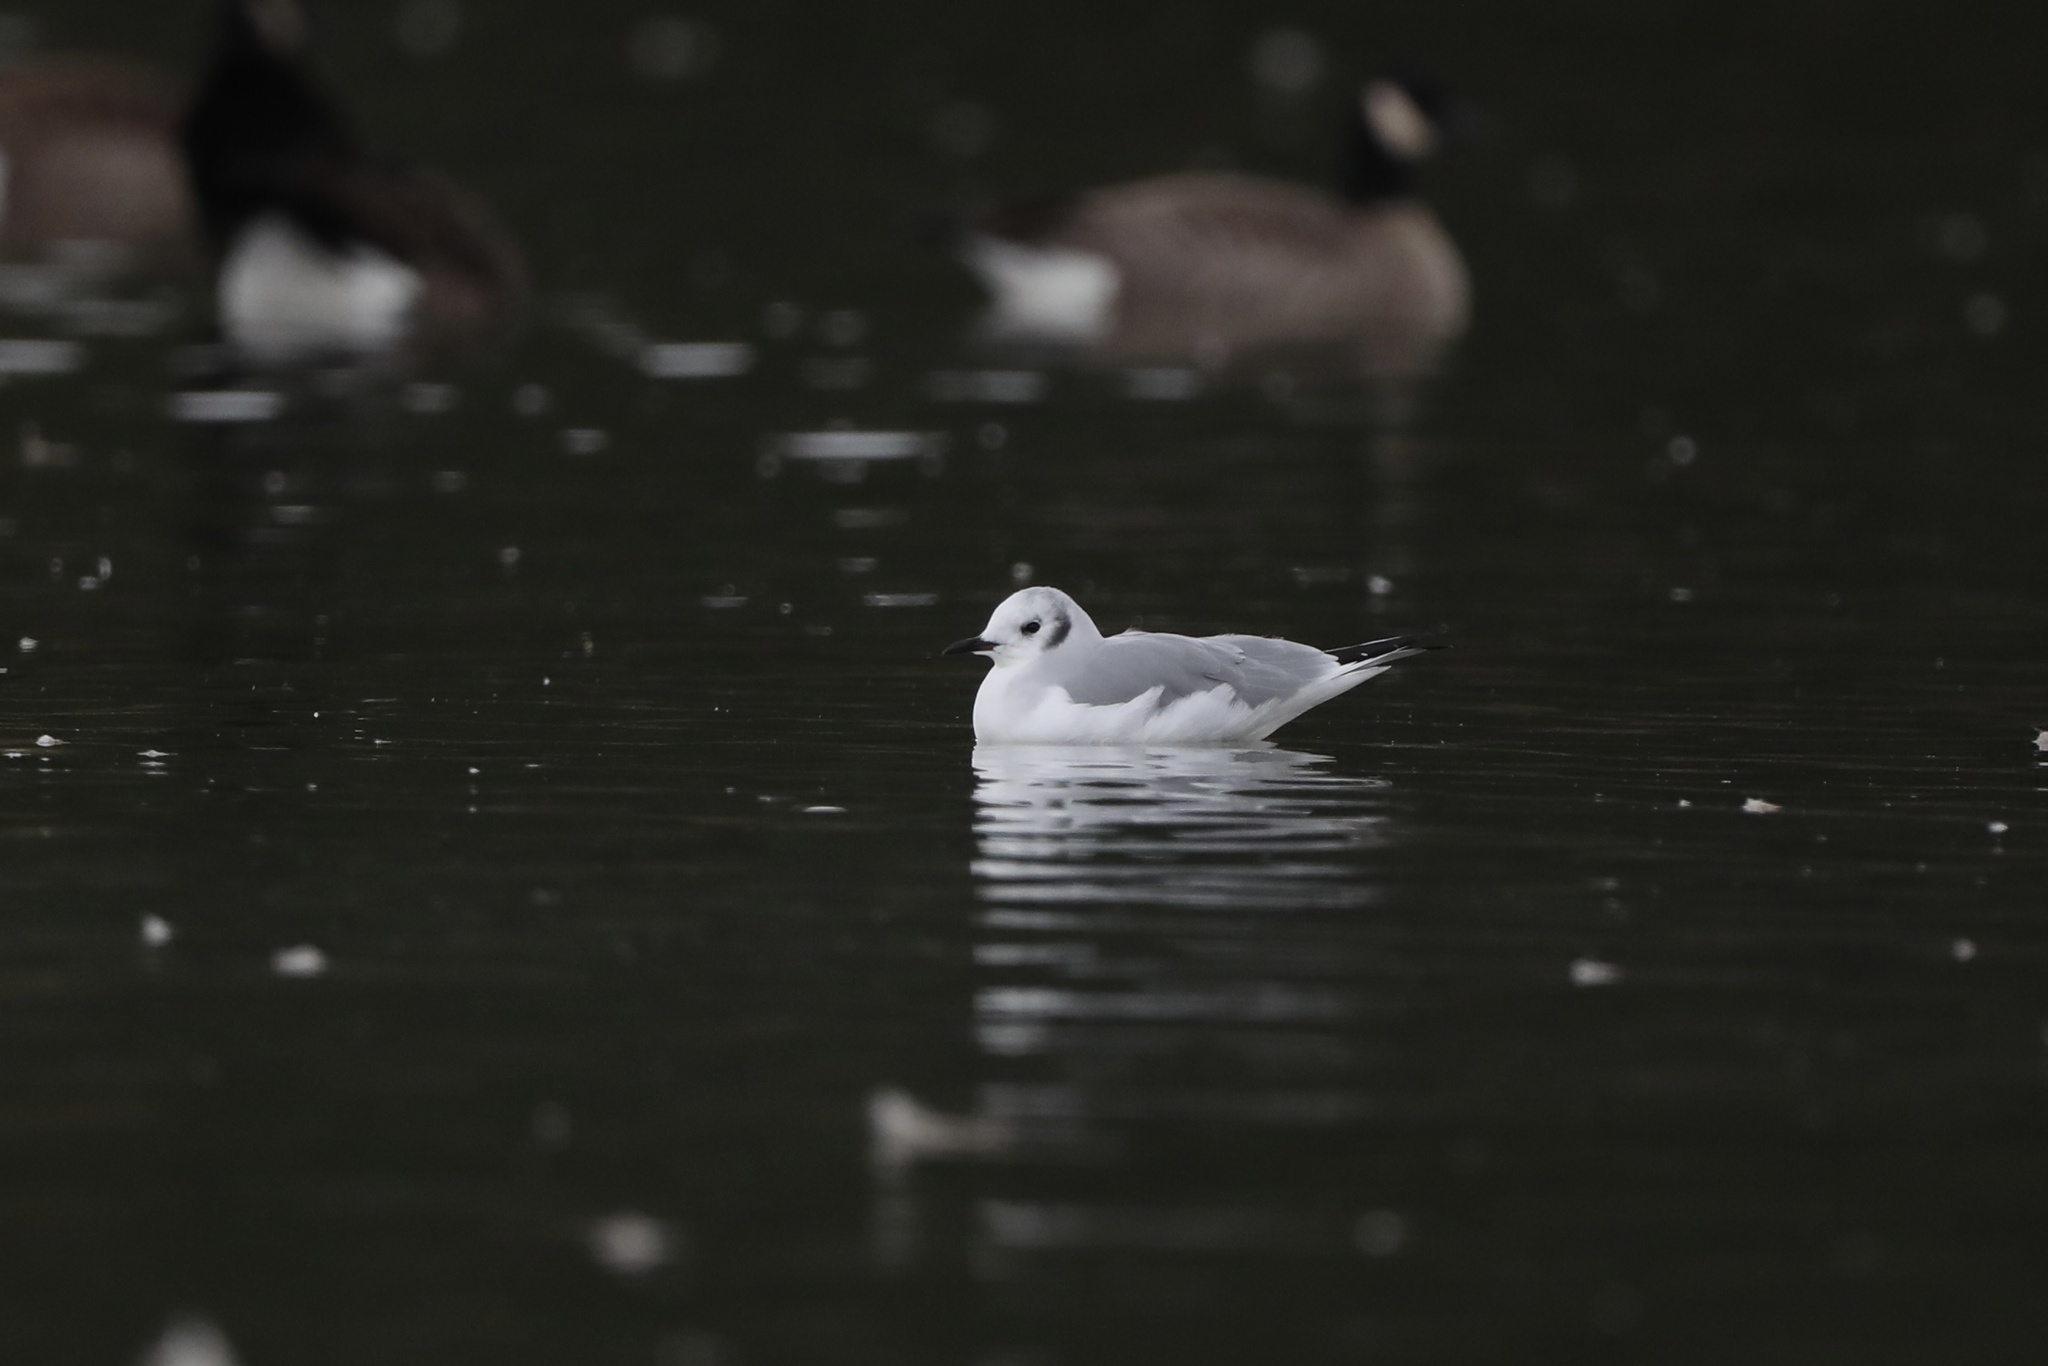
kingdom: Animalia
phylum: Chordata
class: Aves
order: Charadriiformes
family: Laridae
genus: Chroicocephalus
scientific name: Chroicocephalus philadelphia
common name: Bonaparte's gull
